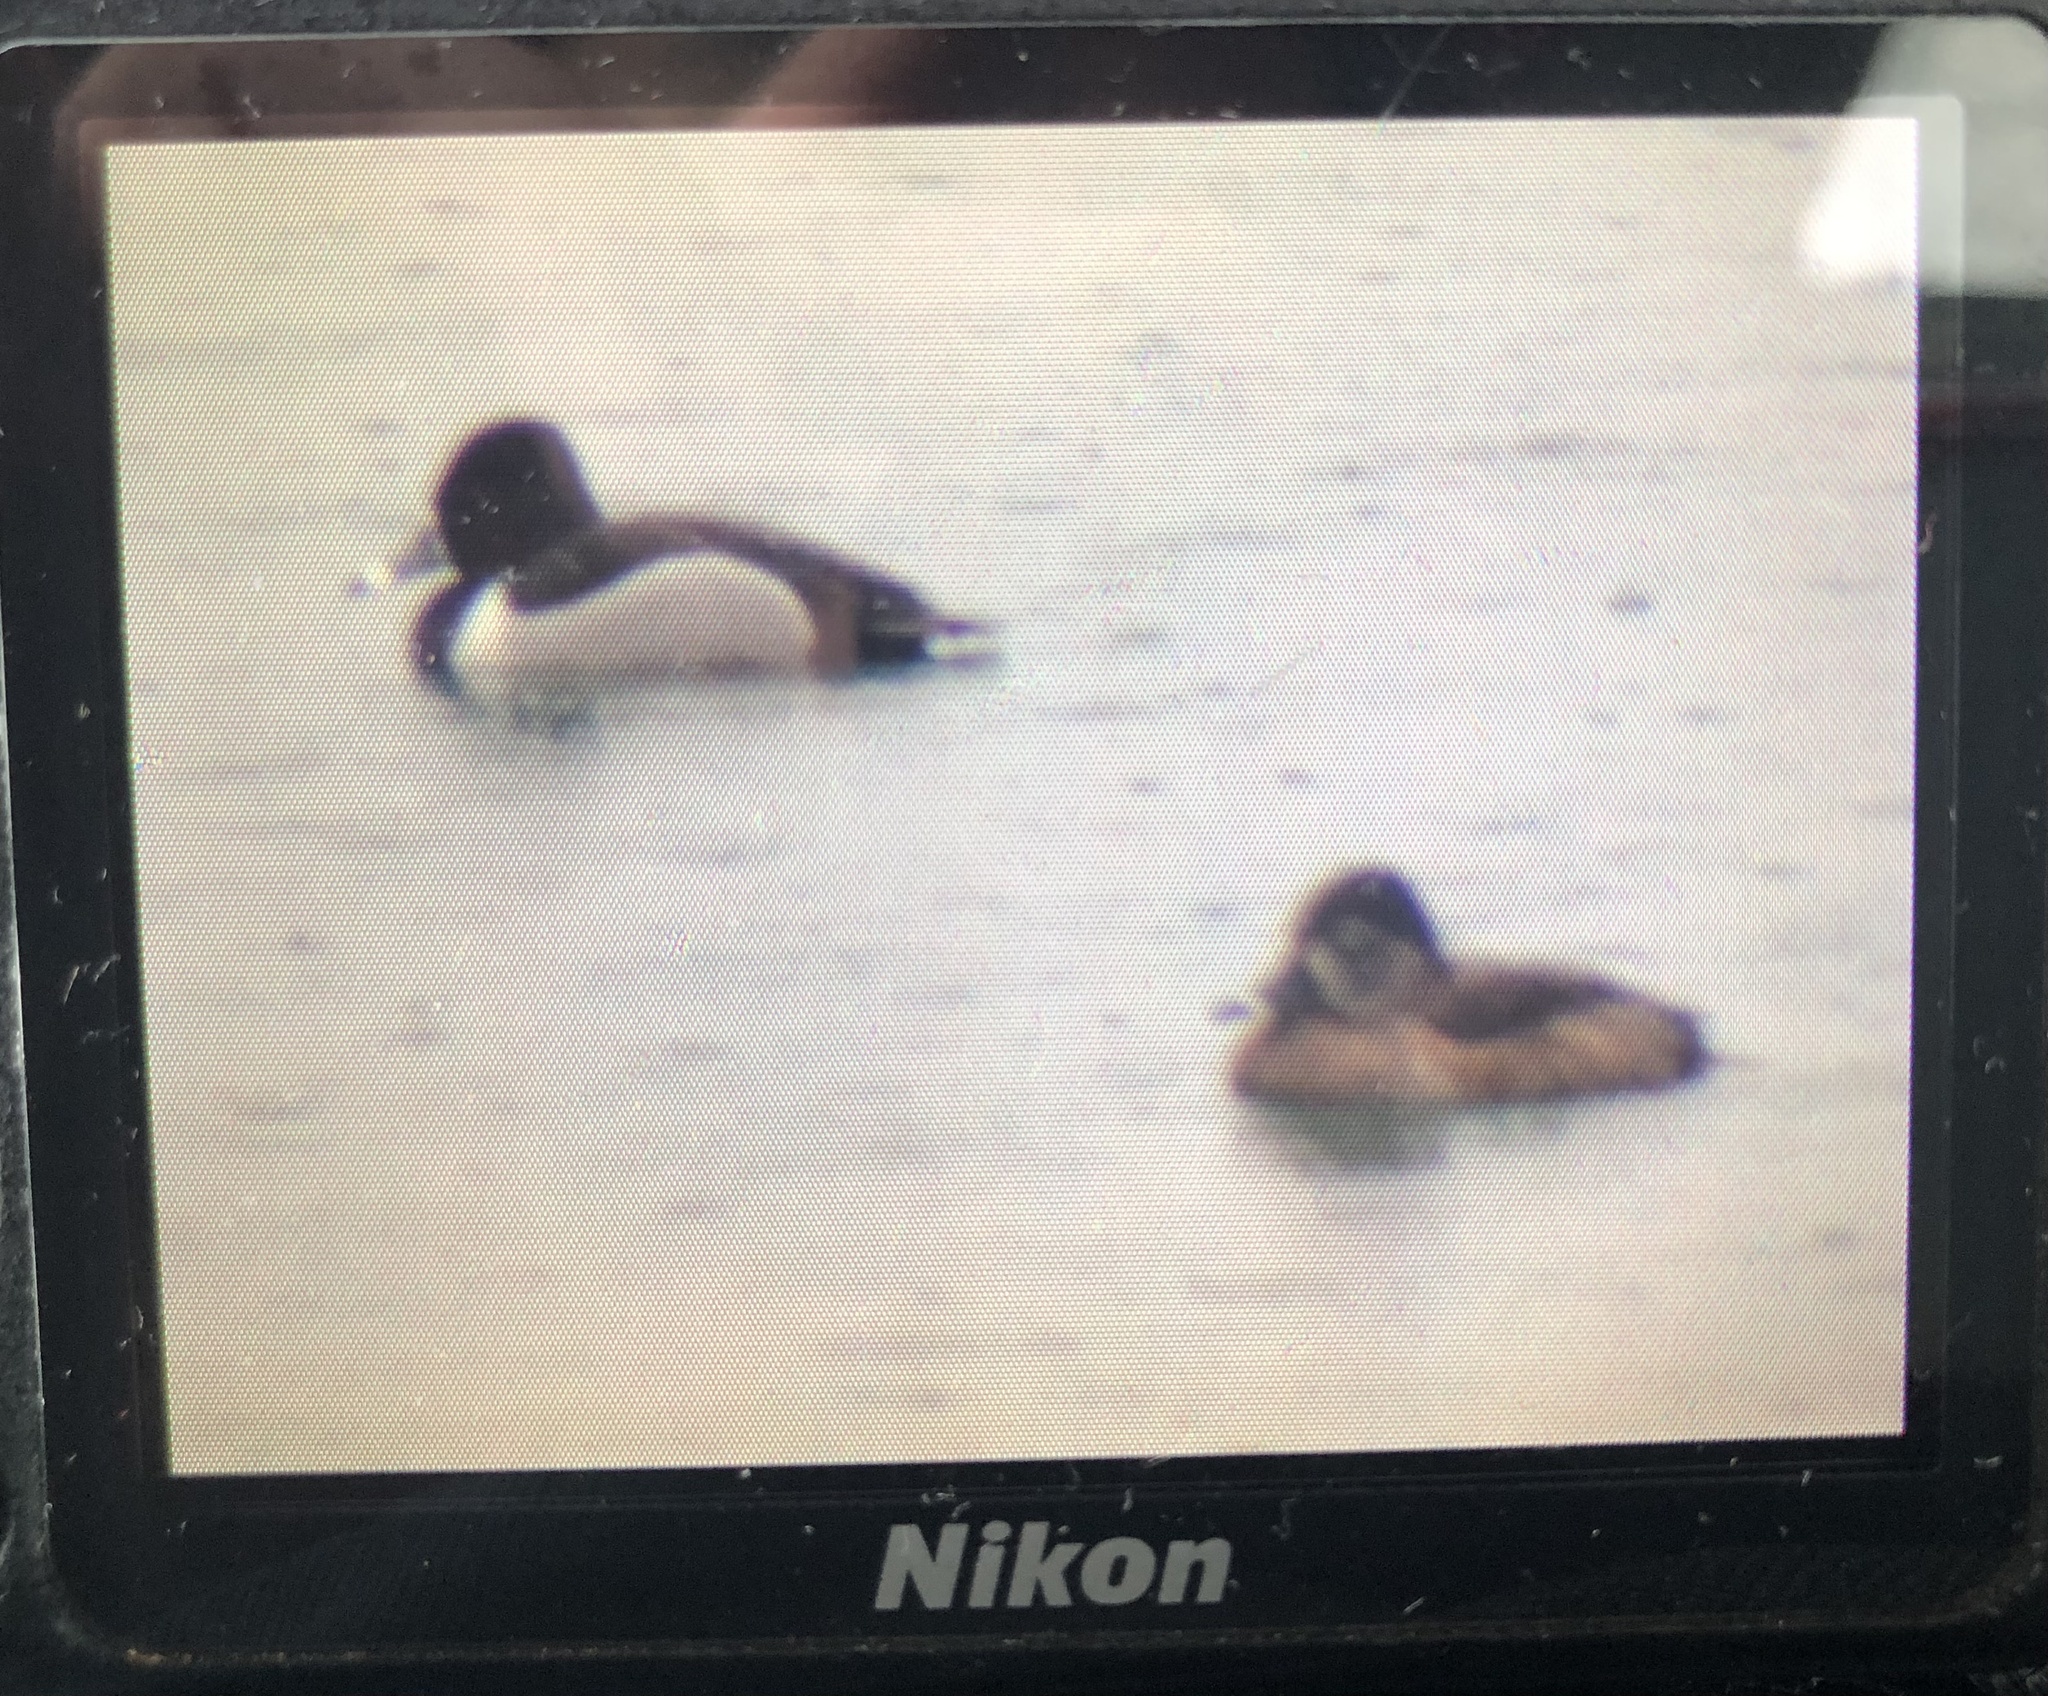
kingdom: Animalia
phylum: Chordata
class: Aves
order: Anseriformes
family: Anatidae
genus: Aythya
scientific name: Aythya collaris
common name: Ring-necked duck
